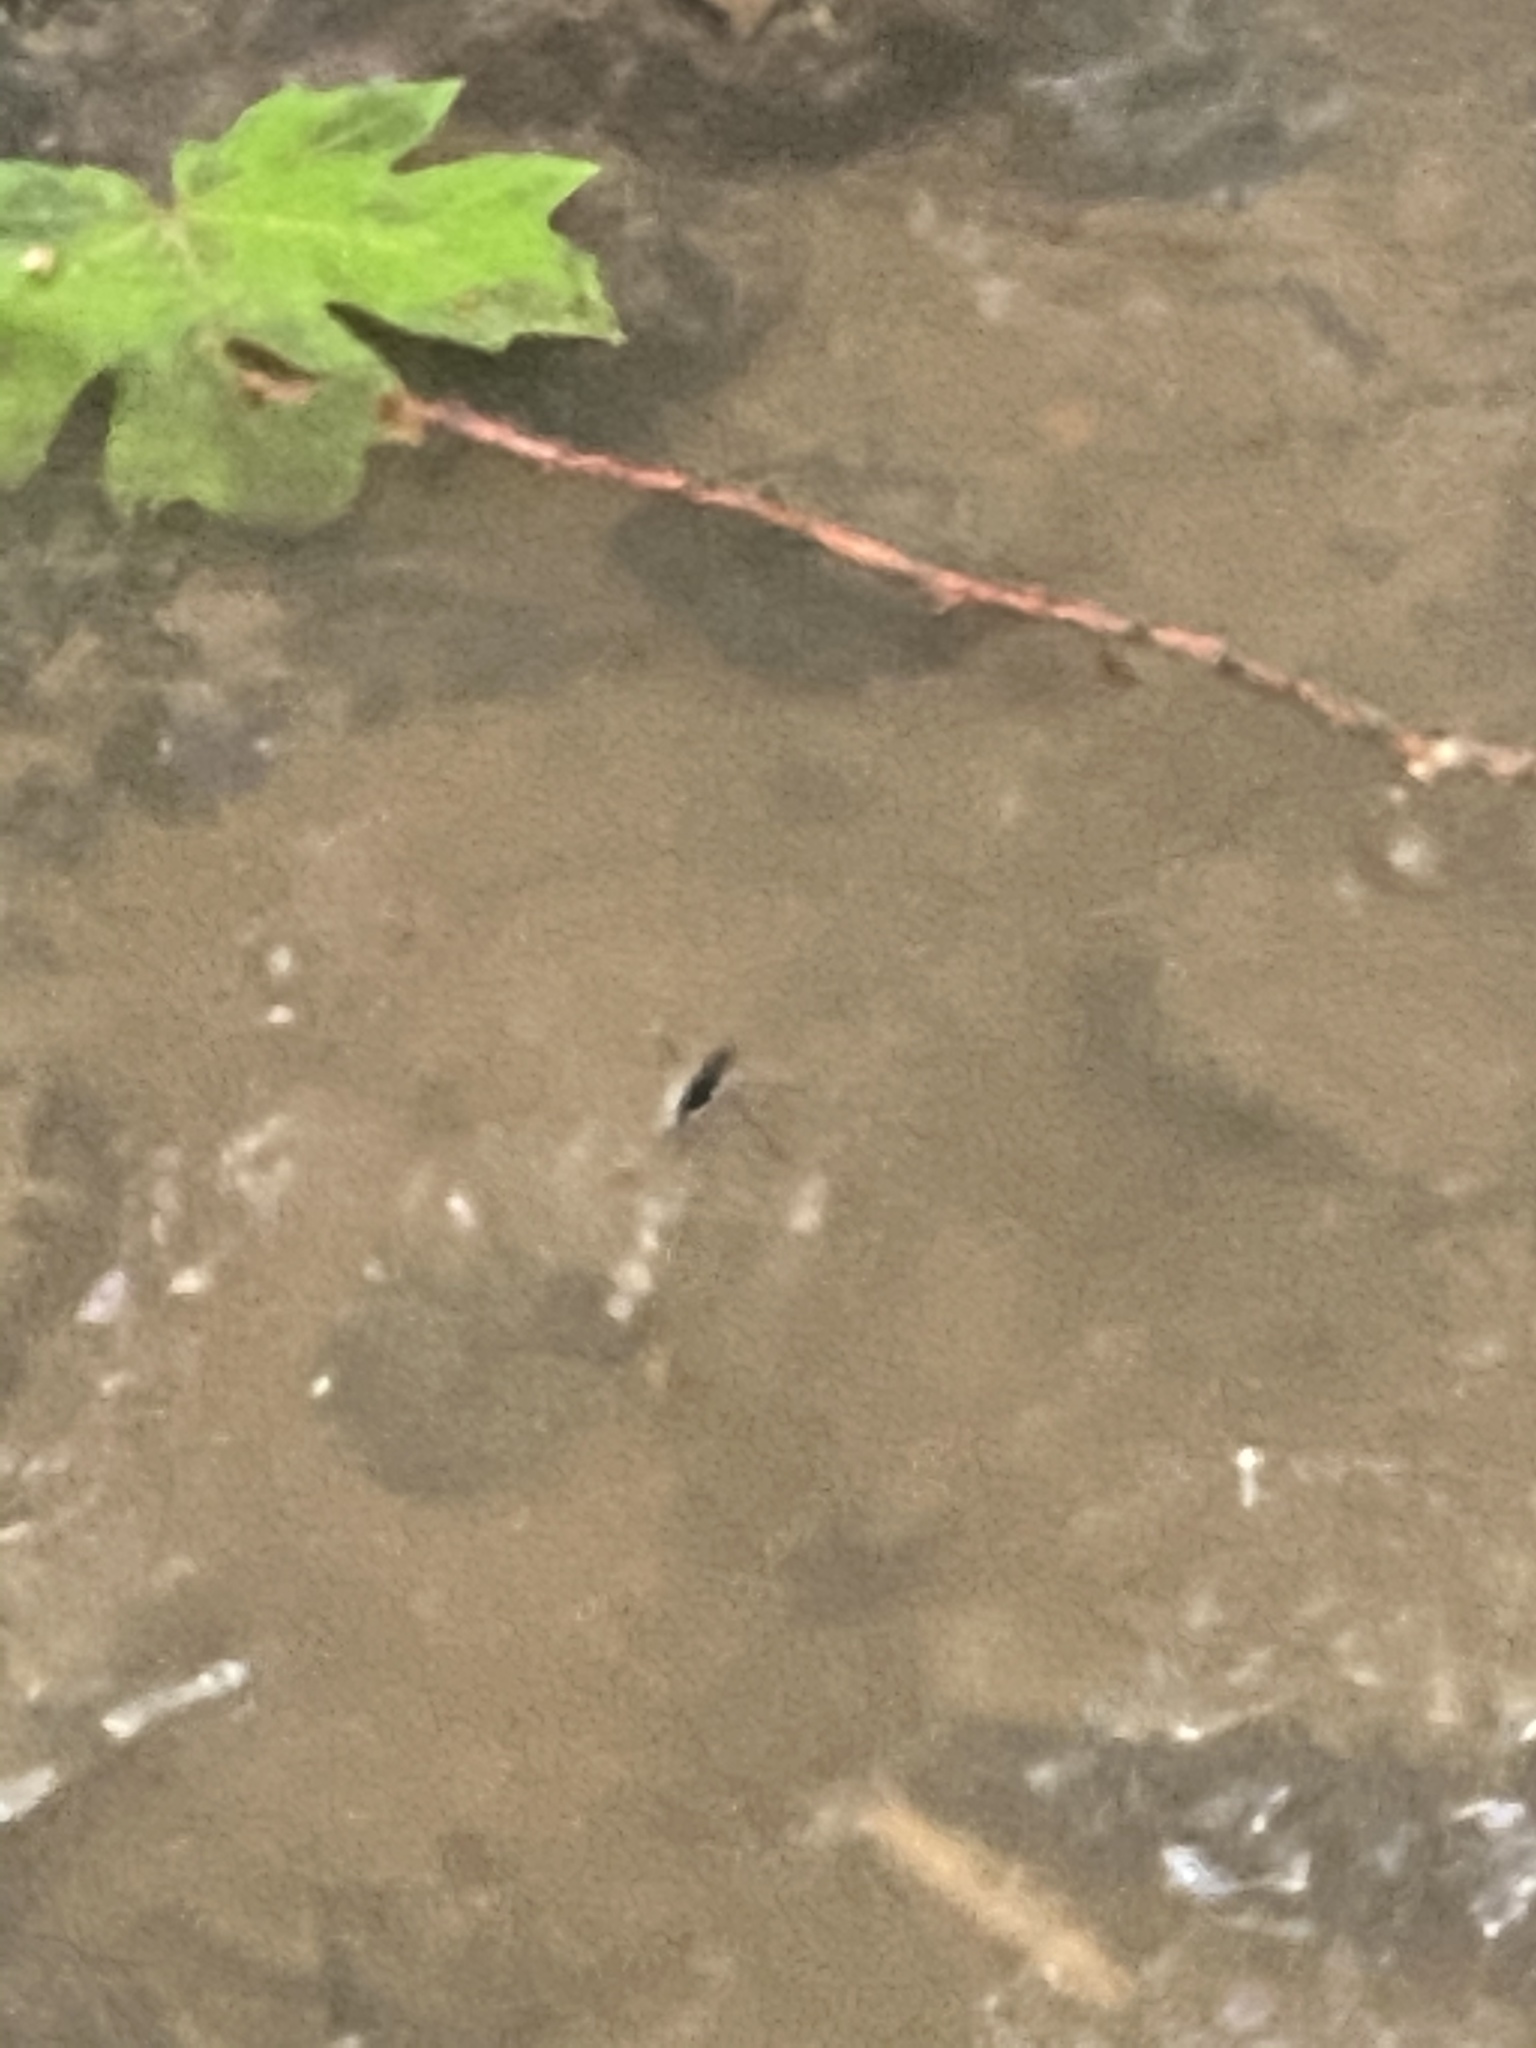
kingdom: Animalia
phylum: Arthropoda
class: Insecta
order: Hemiptera
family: Gerridae
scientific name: Gerridae
